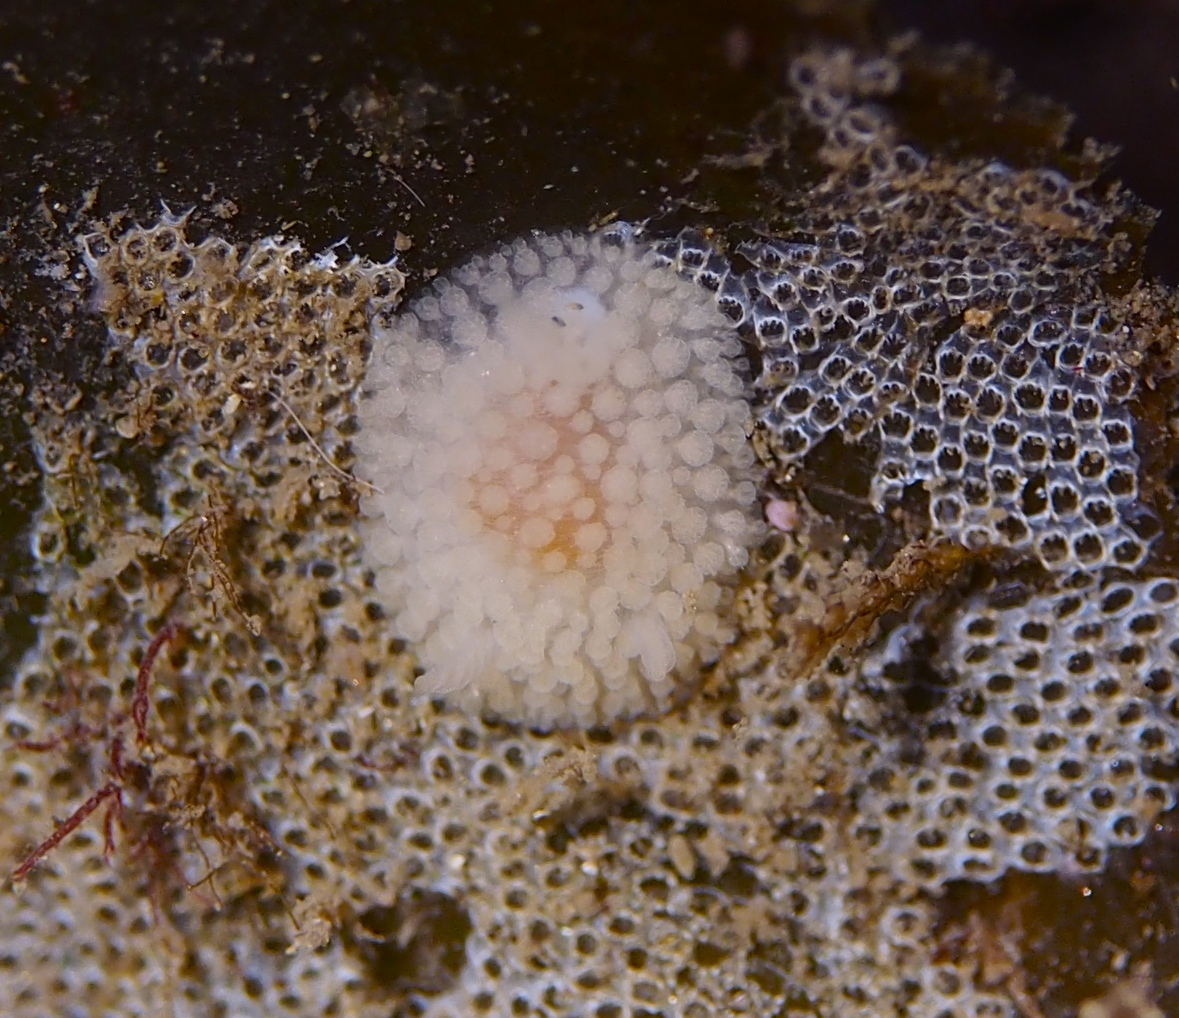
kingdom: Animalia
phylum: Mollusca
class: Gastropoda
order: Nudibranchia
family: Onchidorididae
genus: Onchidoris
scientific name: Onchidoris muricata
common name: Rough doris
